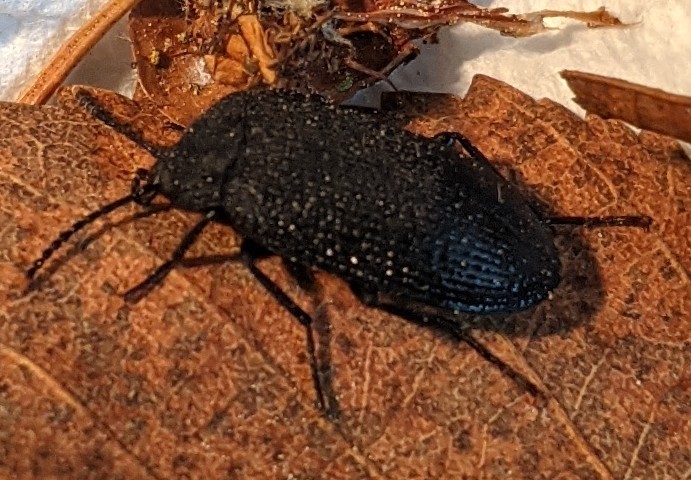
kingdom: Animalia
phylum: Arthropoda
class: Insecta
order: Coleoptera
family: Tetratomidae
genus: Penthe
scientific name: Penthe pimelia
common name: Velvety bark beetle
